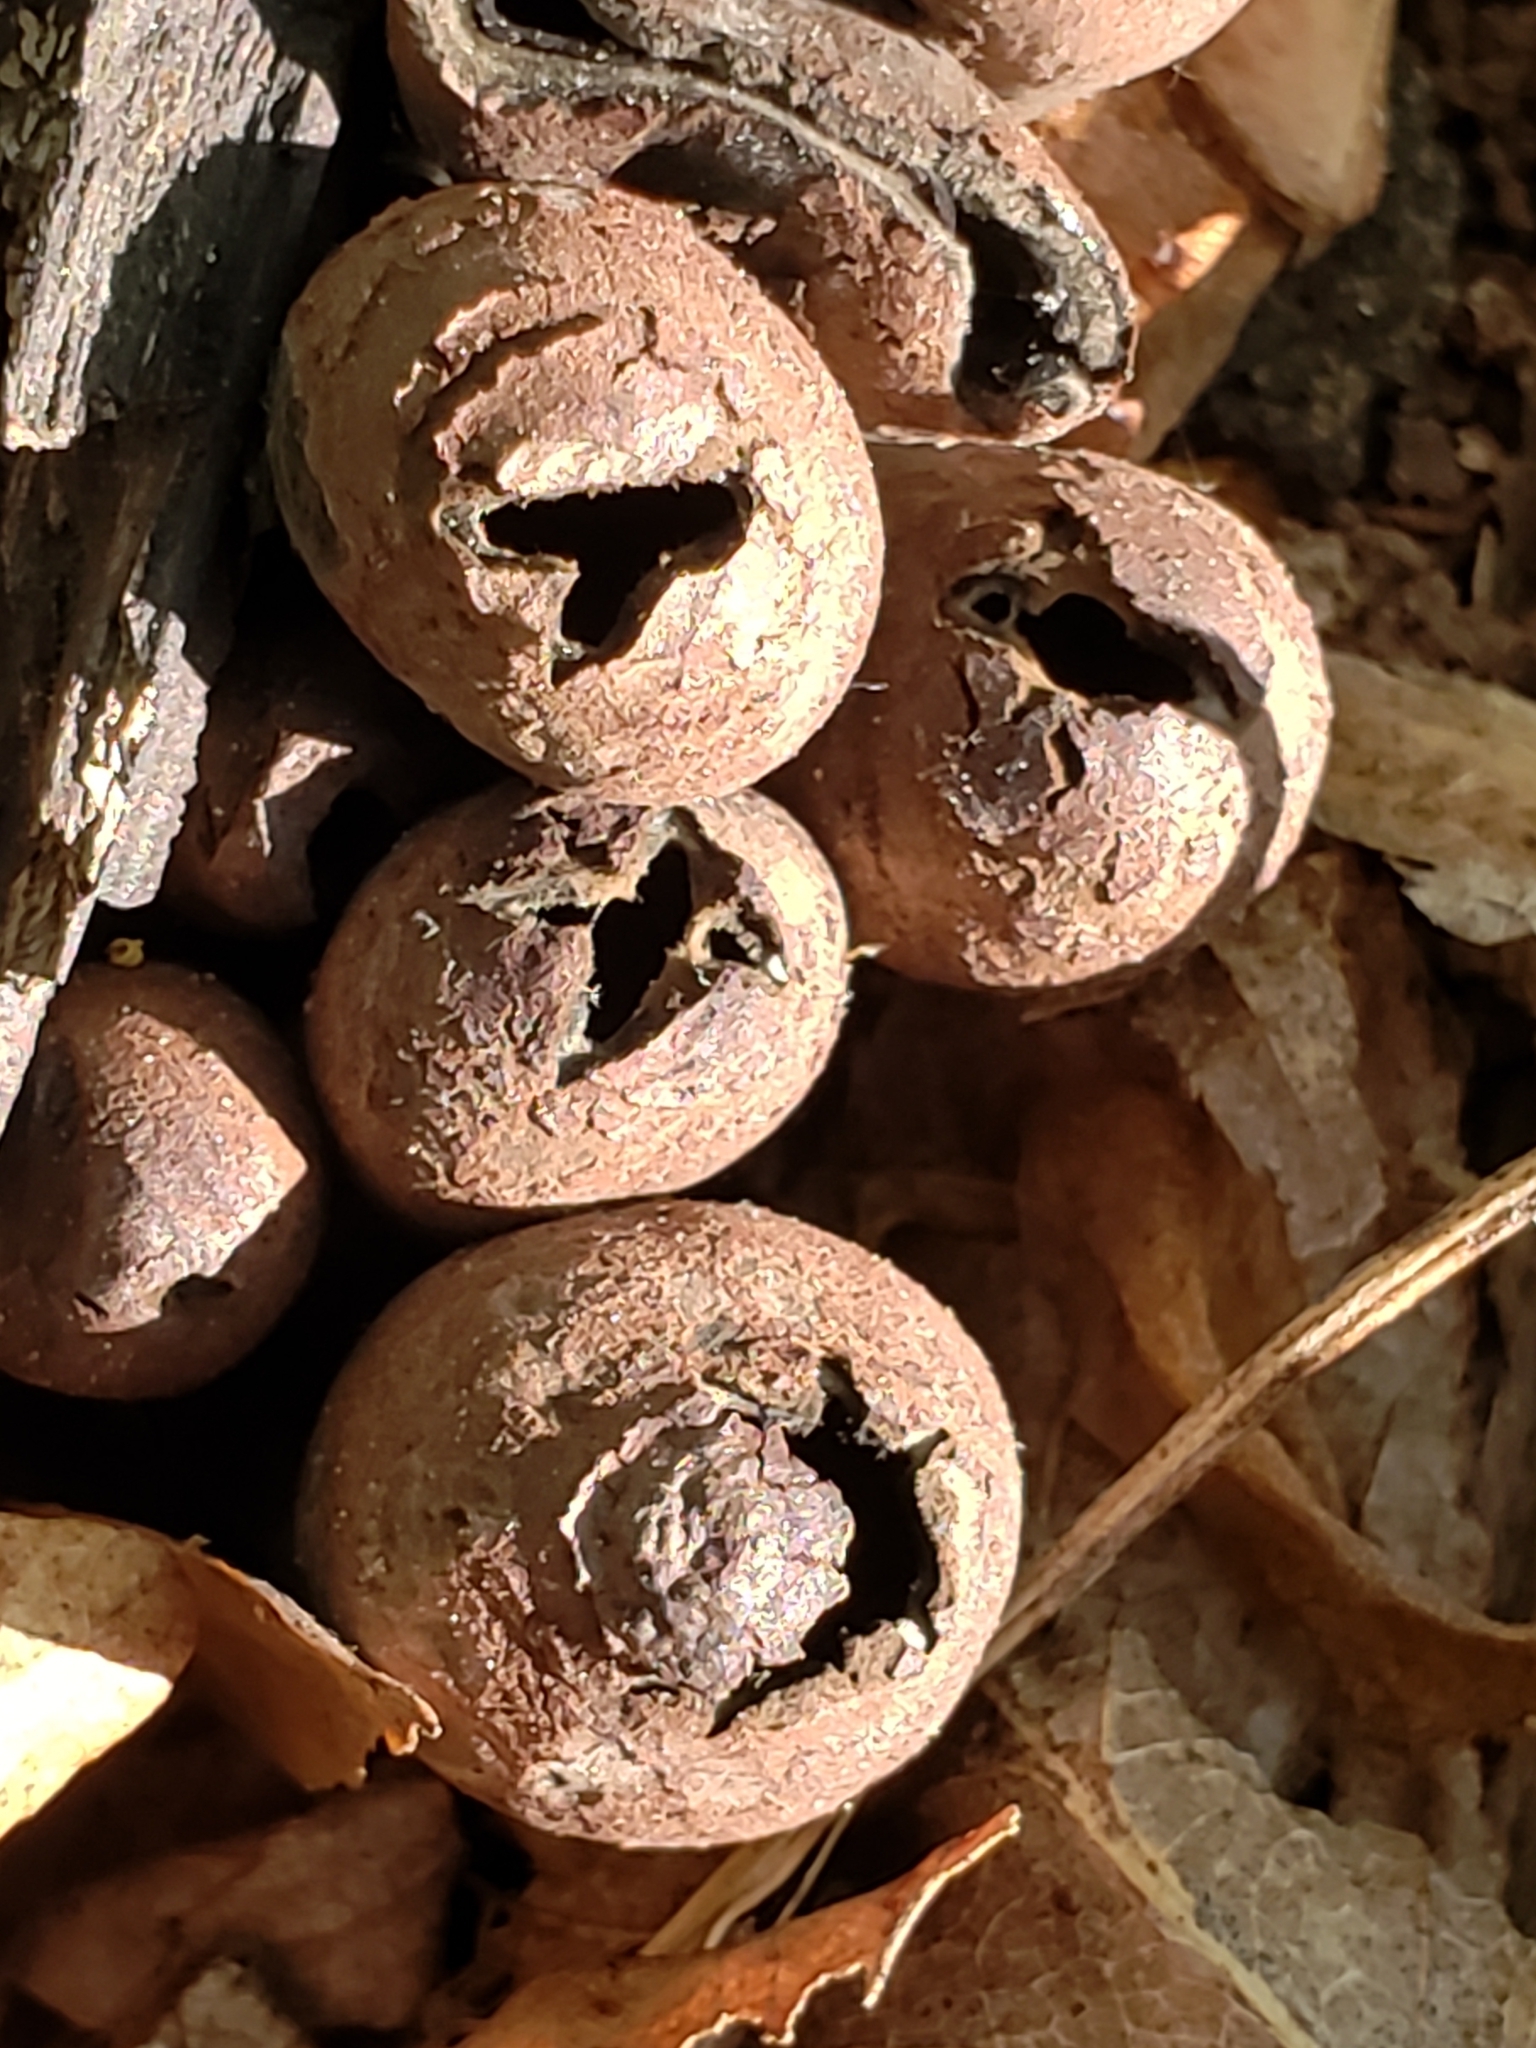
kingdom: Fungi
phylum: Ascomycota
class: Pezizomycetes
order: Pezizales
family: Sarcosomataceae
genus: Urnula
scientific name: Urnula craterium
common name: Devil's urn
